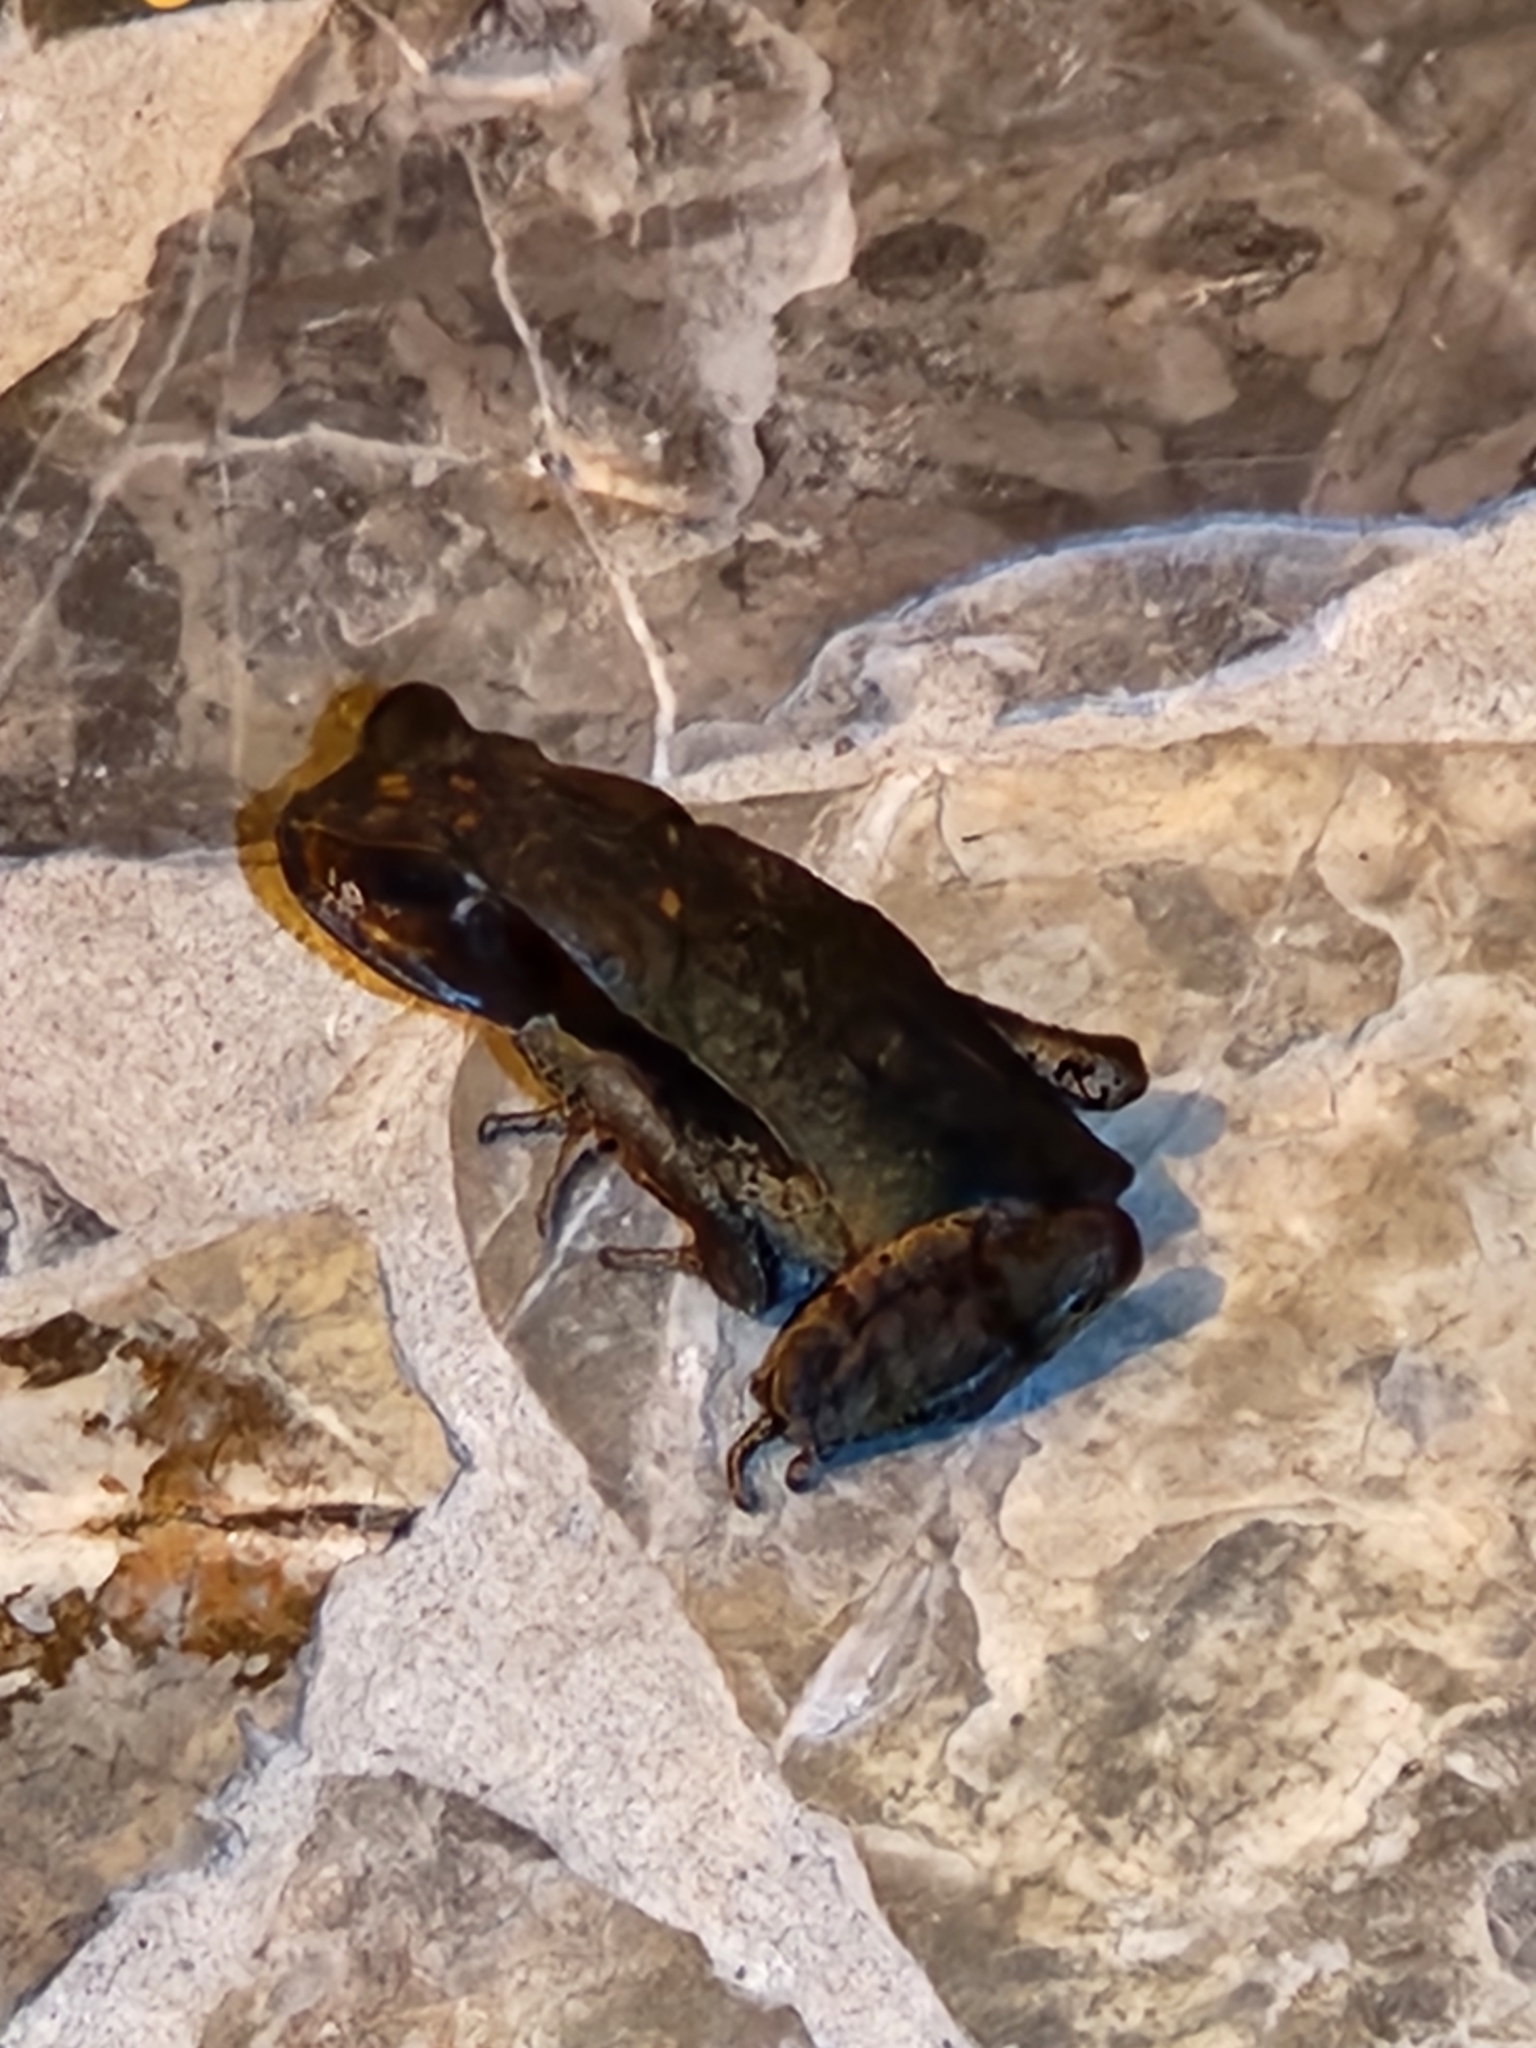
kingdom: Animalia
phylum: Chordata
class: Amphibia
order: Anura
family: Bufonidae
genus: Rhaebo
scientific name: Rhaebo haematiticus
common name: Truando toad
